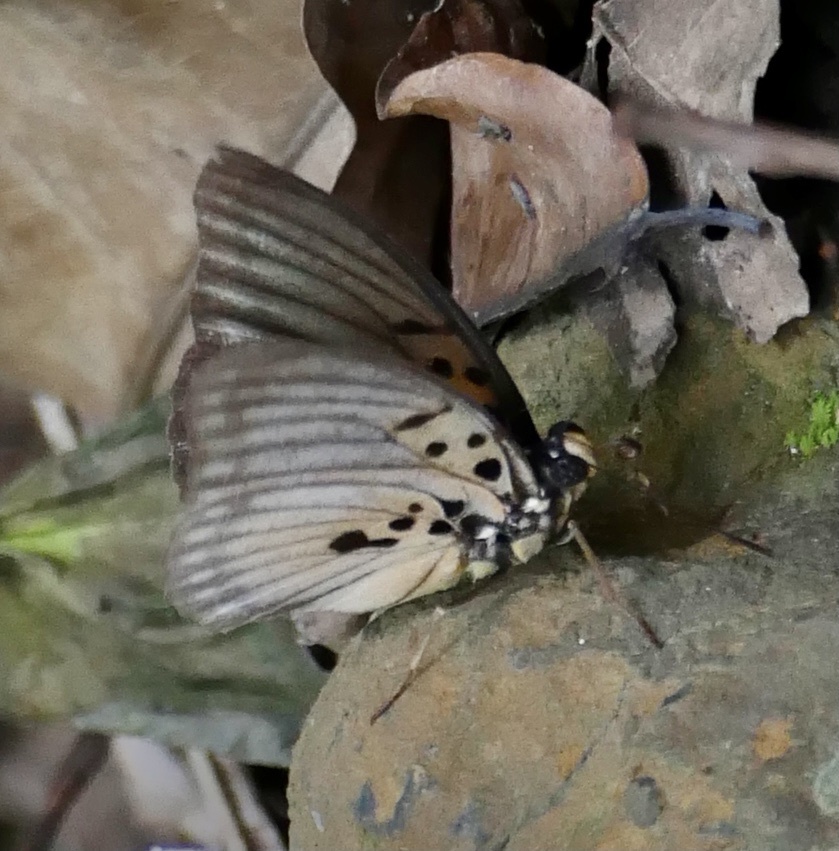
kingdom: Animalia
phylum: Arthropoda
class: Insecta
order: Lepidoptera
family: Nymphalidae
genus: Euphaedra
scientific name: Euphaedra edwardsii
